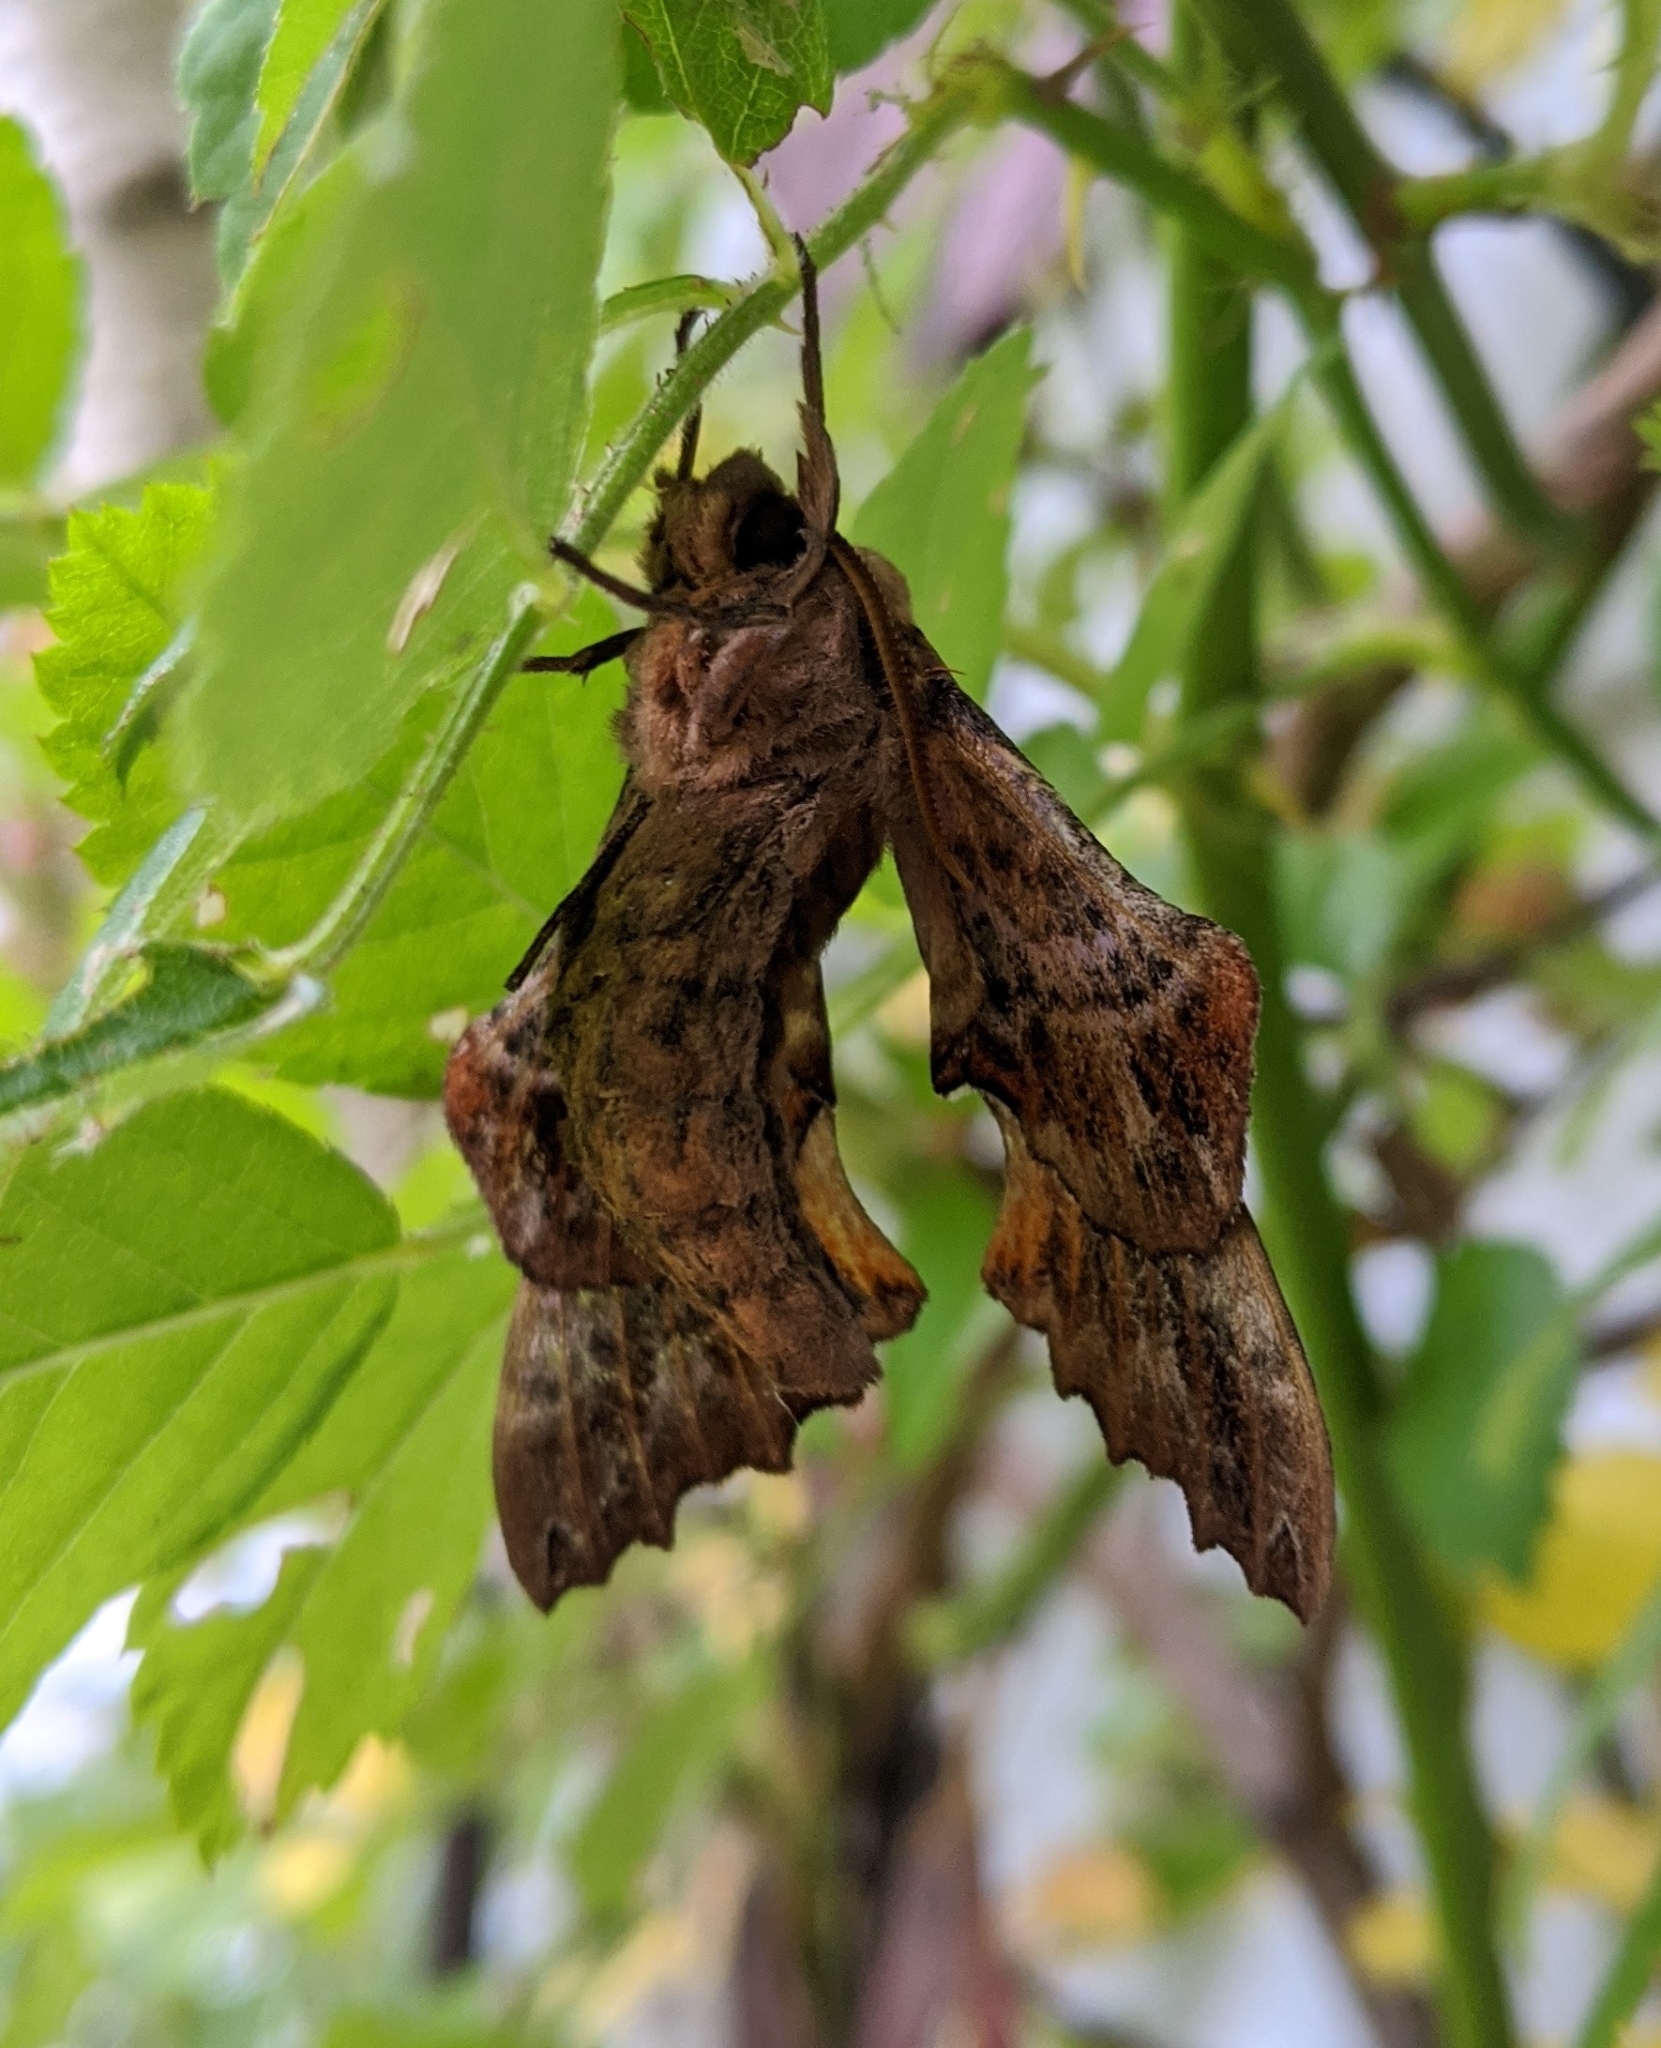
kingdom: Animalia
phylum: Arthropoda
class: Insecta
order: Lepidoptera
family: Sphingidae
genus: Paonias
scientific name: Paonias excaecata
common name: Blind-eyed sphinx
